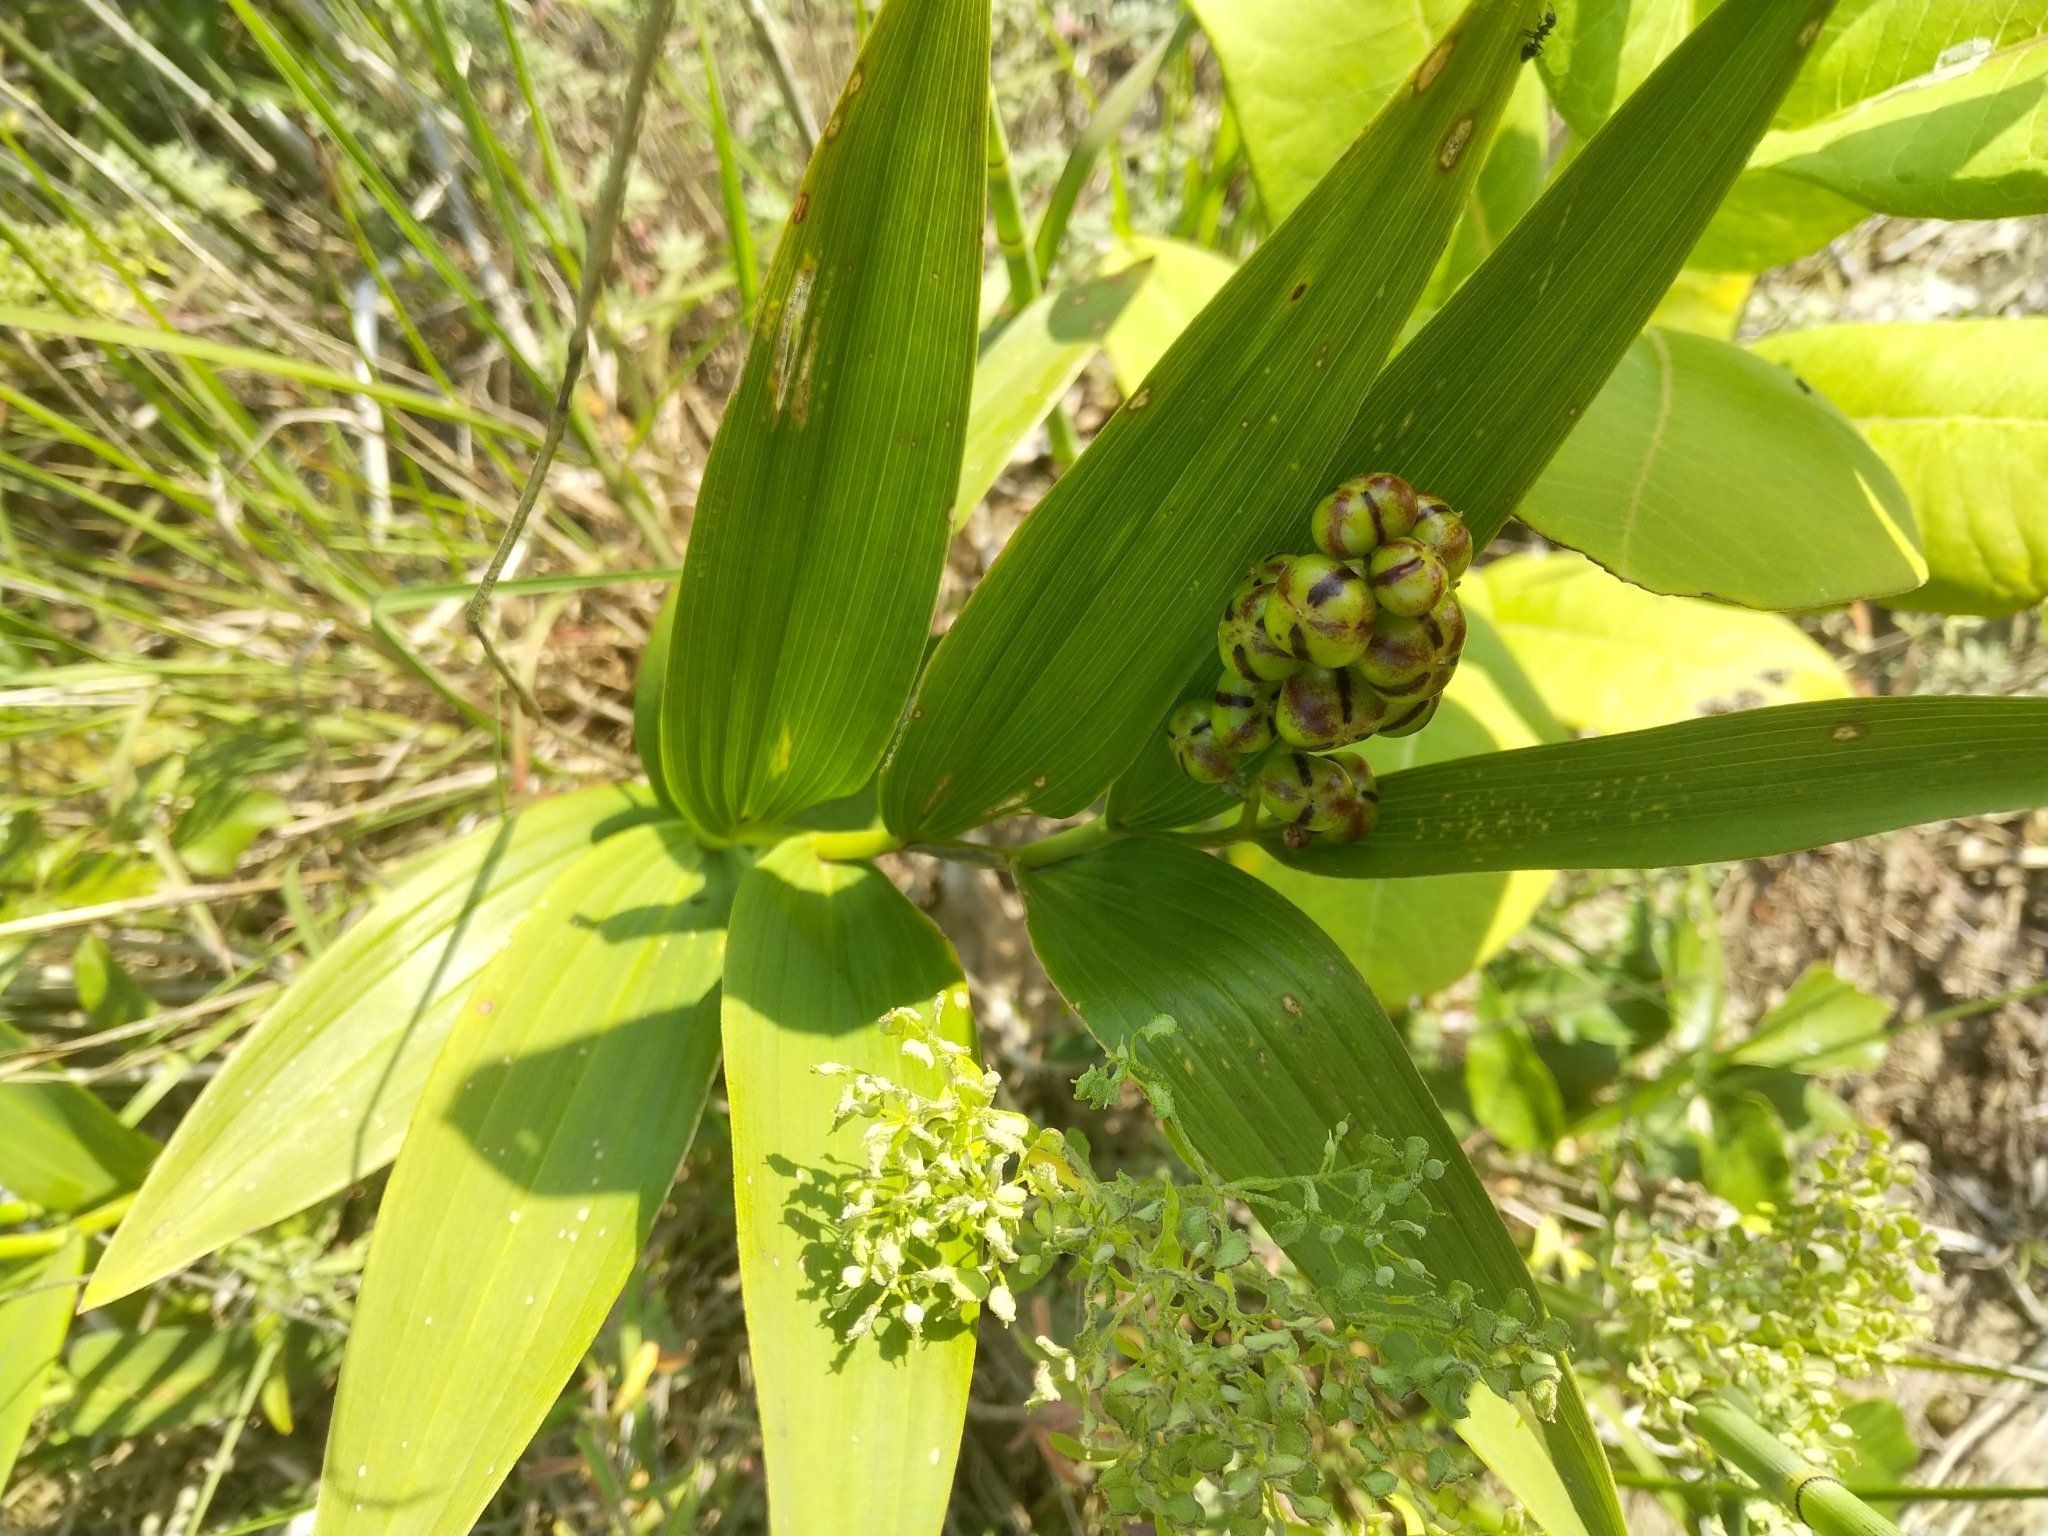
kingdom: Plantae
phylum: Tracheophyta
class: Liliopsida
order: Asparagales
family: Asparagaceae
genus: Maianthemum
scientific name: Maianthemum stellatum
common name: Little false solomon's seal
